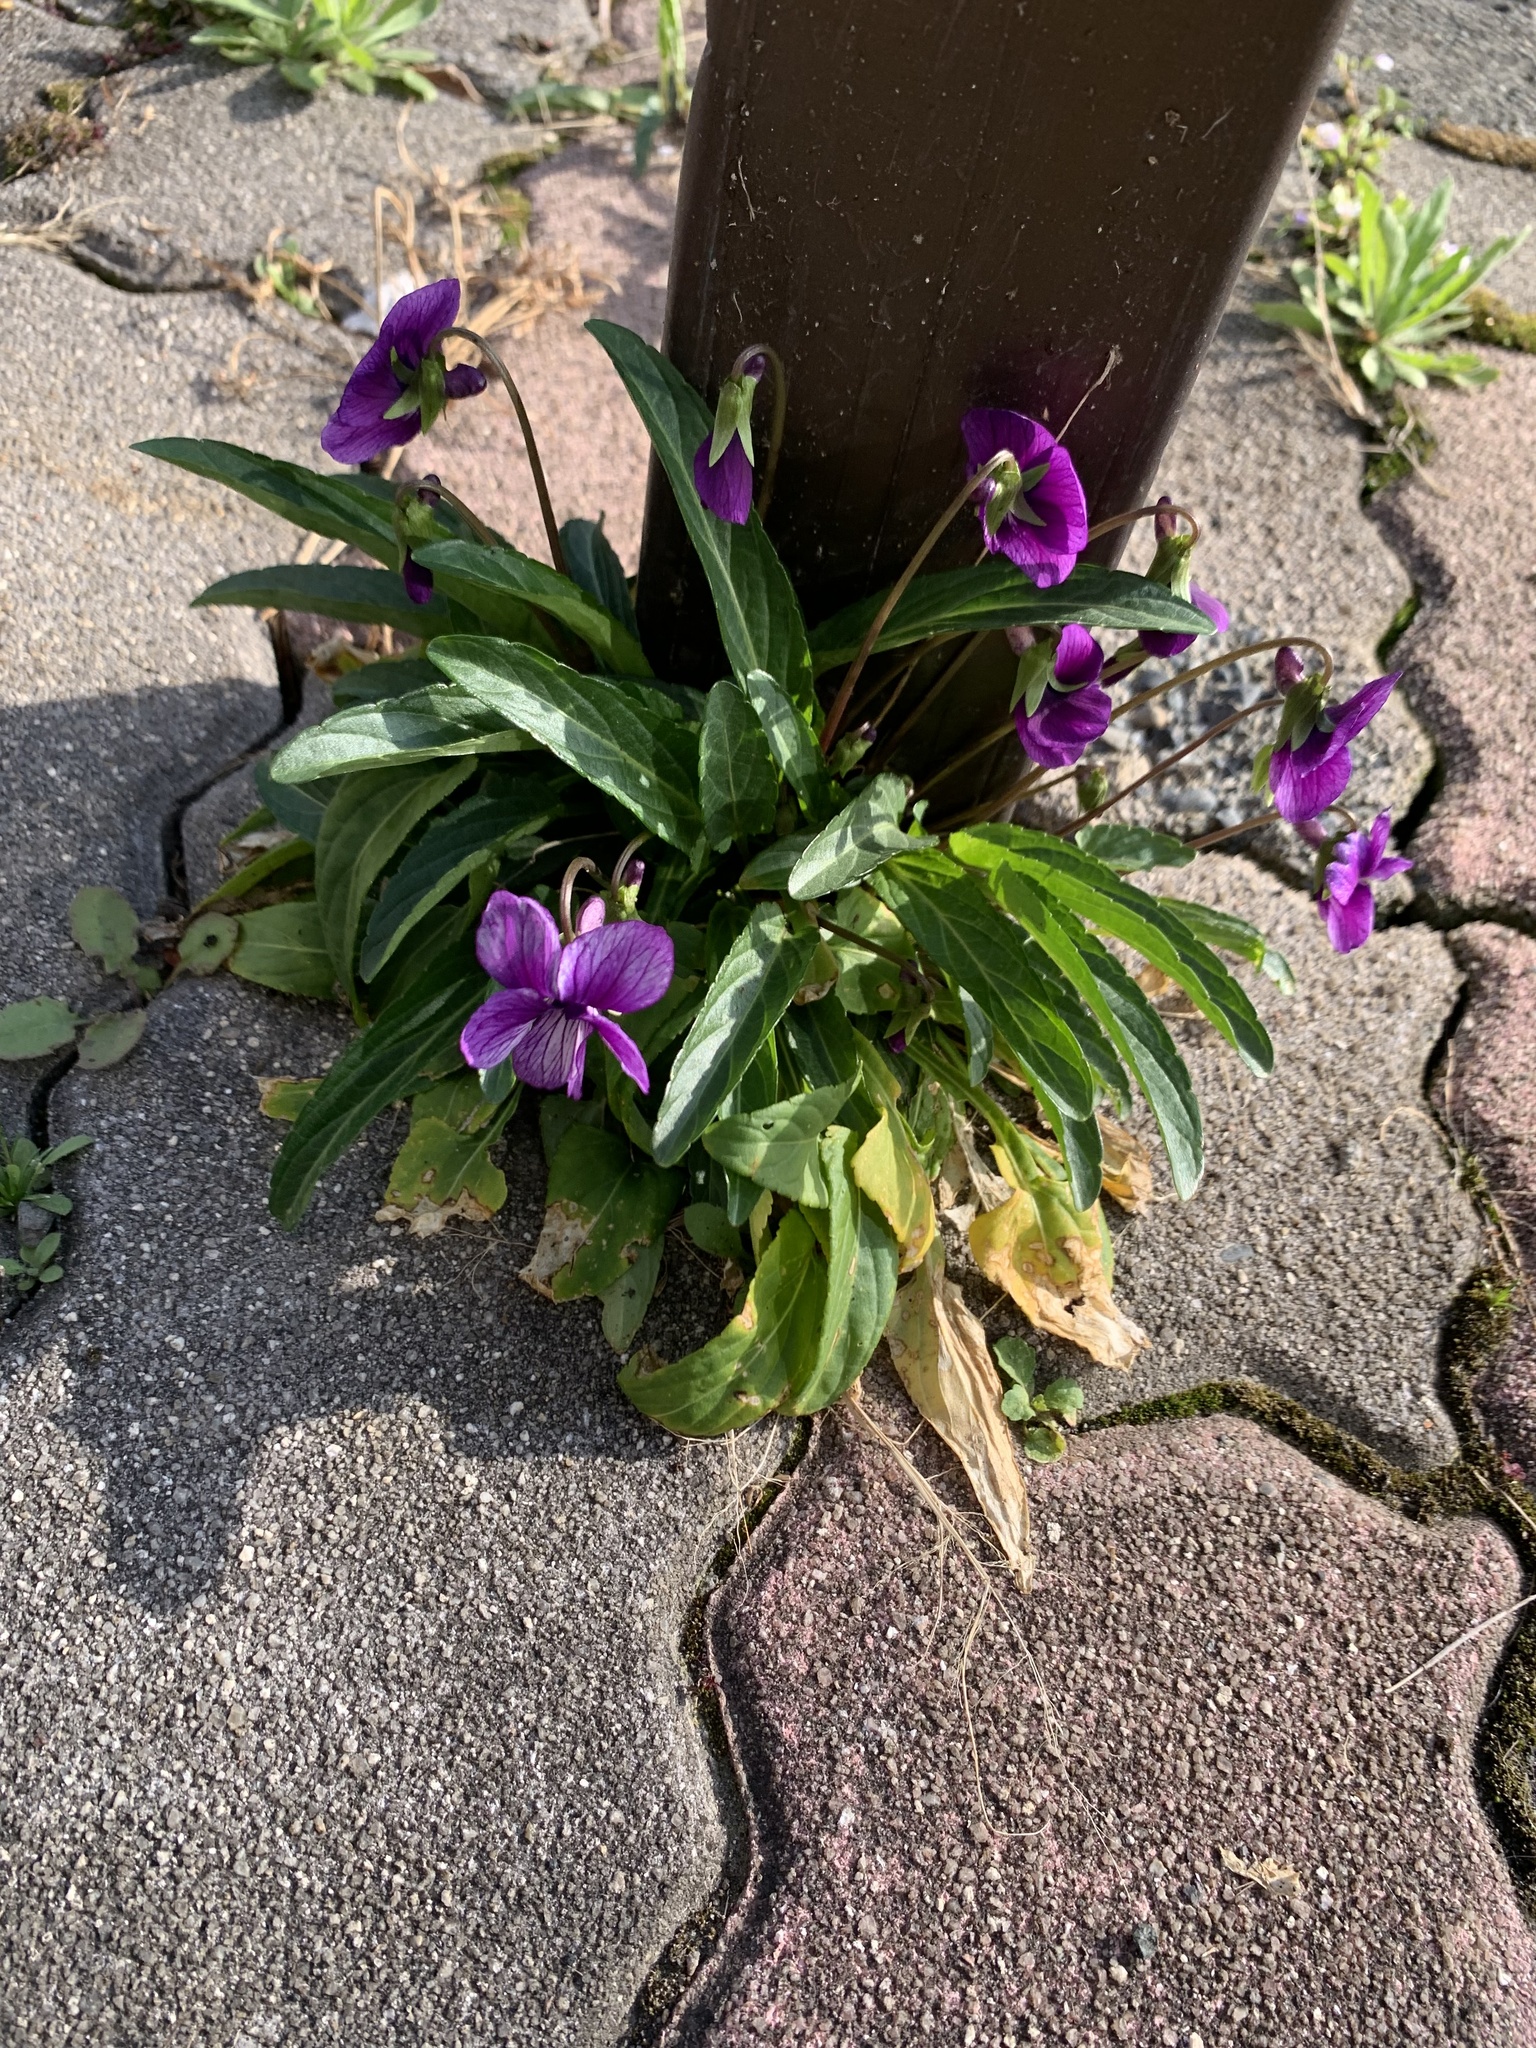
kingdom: Plantae
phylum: Tracheophyta
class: Magnoliopsida
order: Malpighiales
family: Violaceae
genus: Viola
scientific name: Viola mandshurica
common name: Manchuria violet
